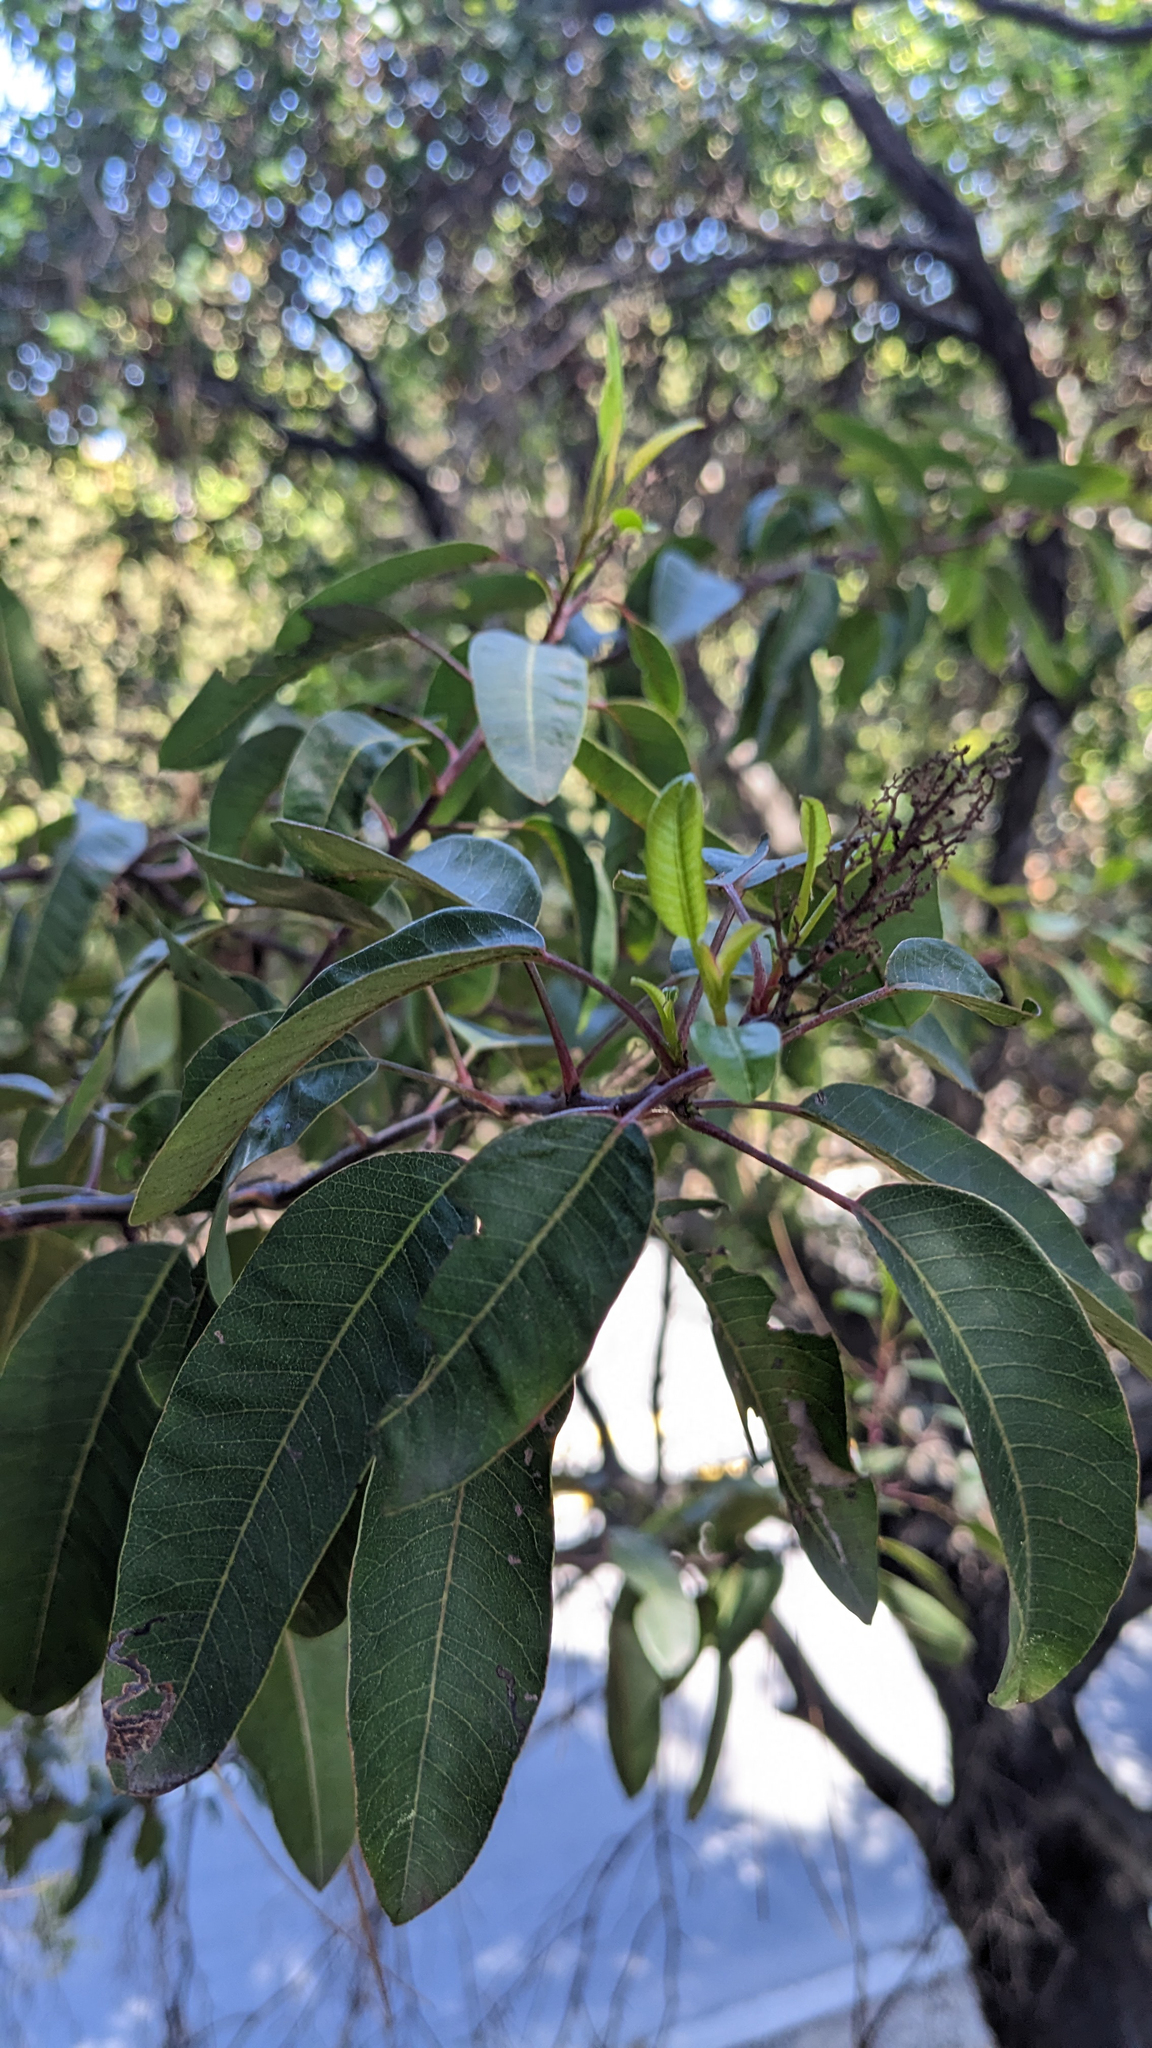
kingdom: Plantae
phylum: Tracheophyta
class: Magnoliopsida
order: Sapindales
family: Anacardiaceae
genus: Malosma
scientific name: Malosma laurina
